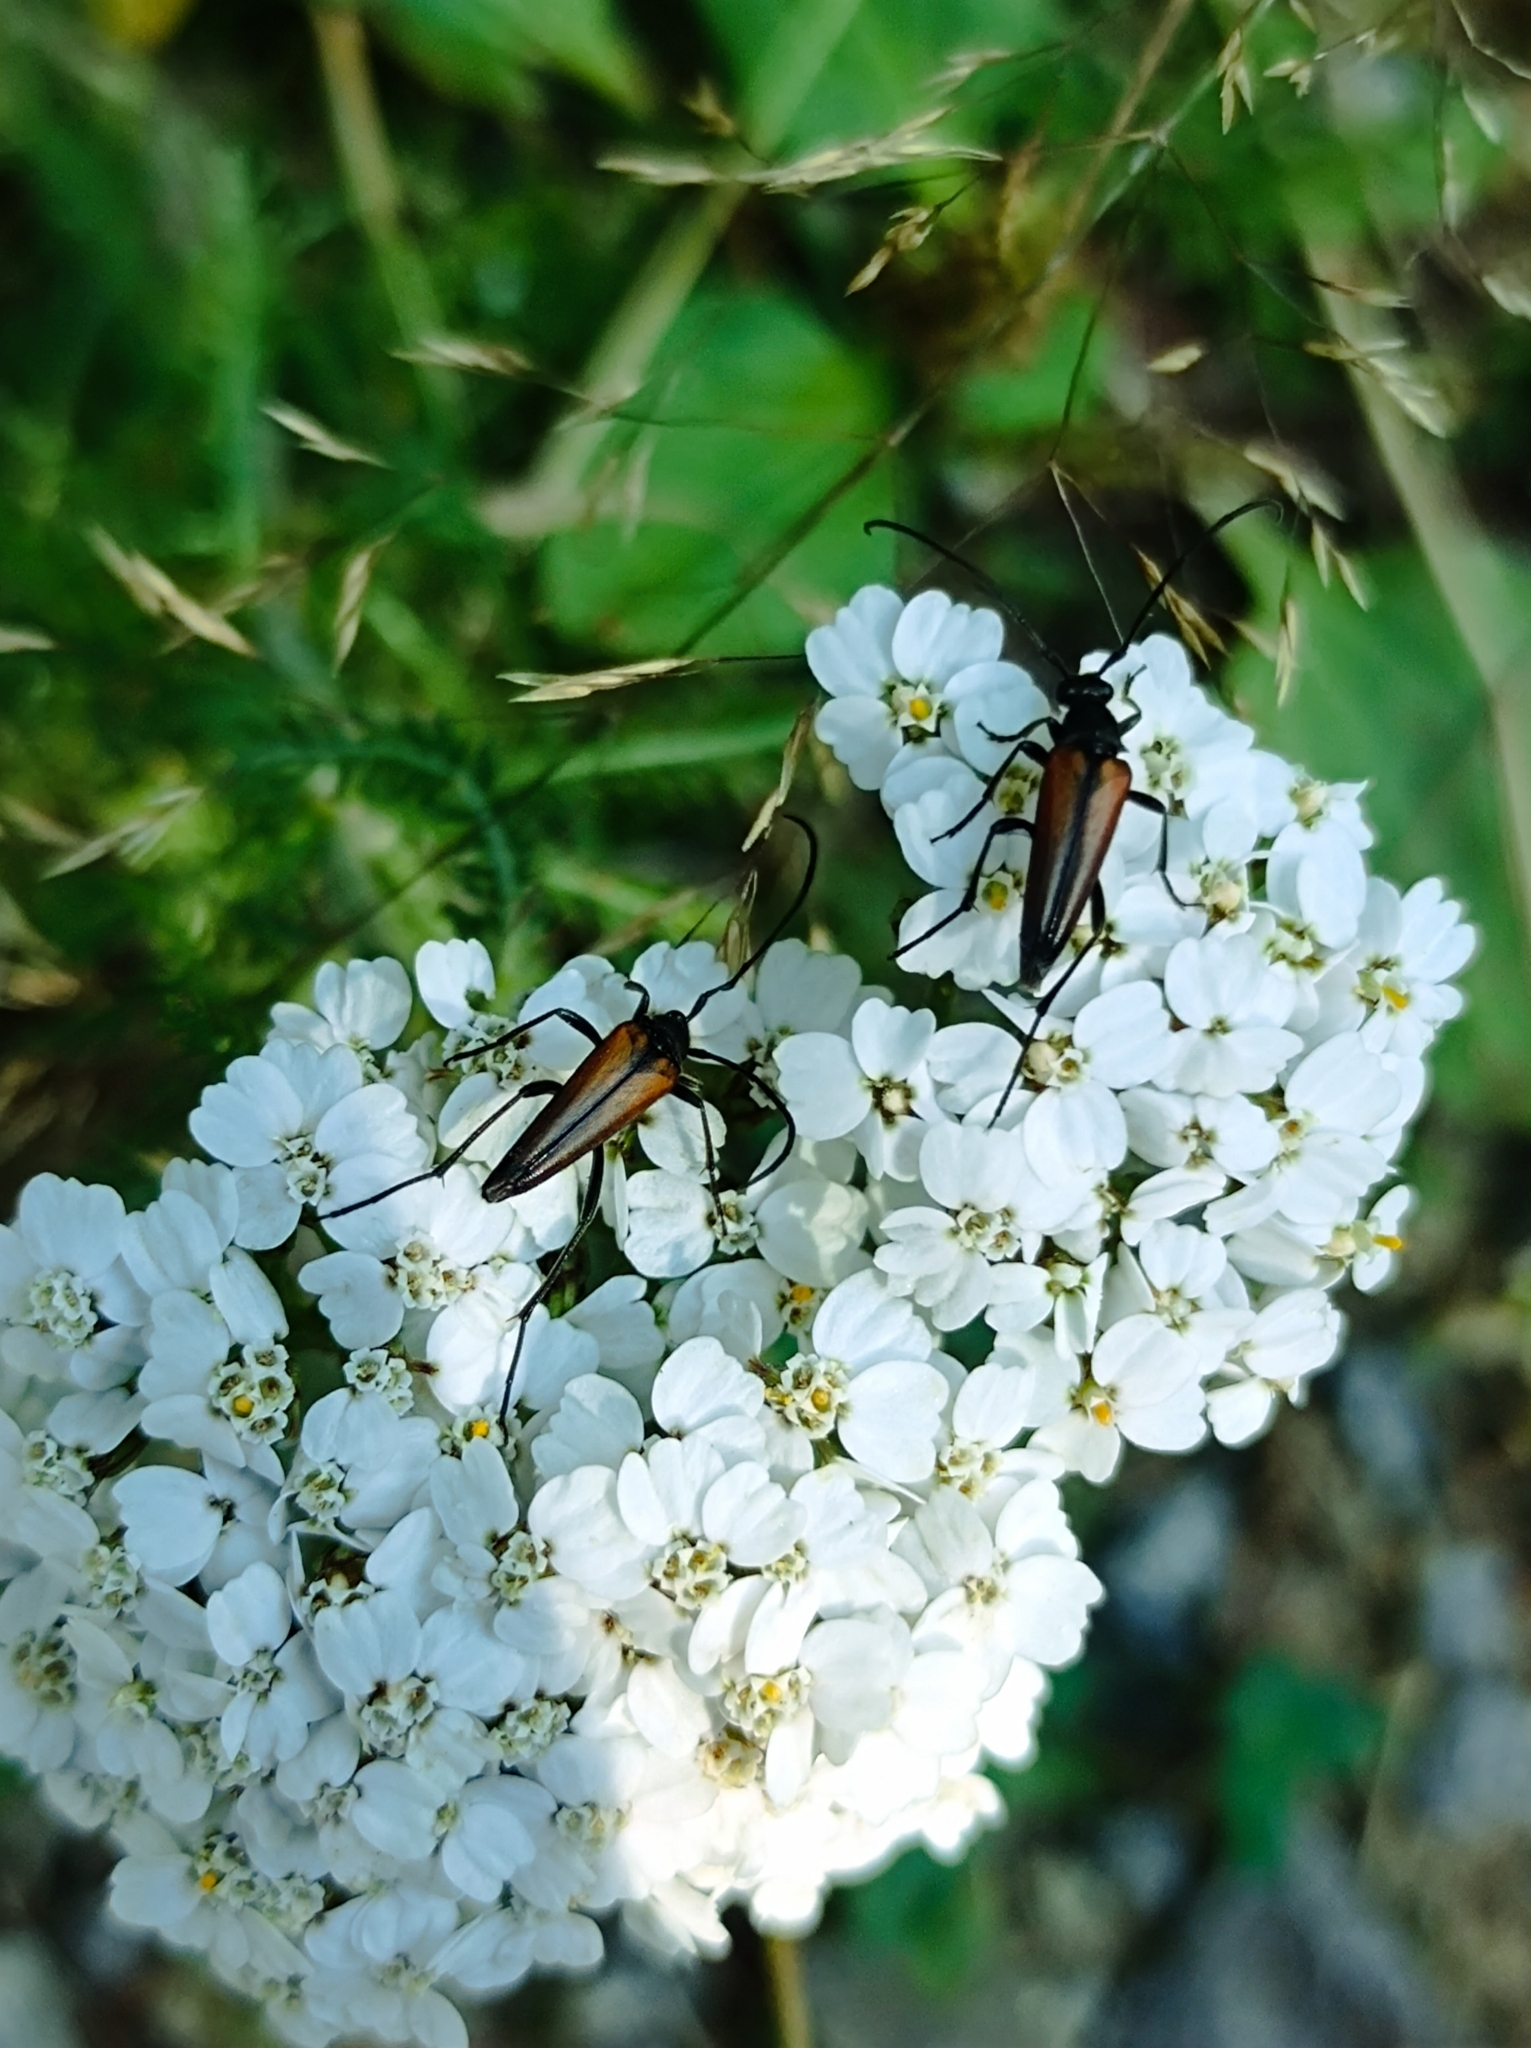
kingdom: Animalia
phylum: Arthropoda
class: Insecta
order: Coleoptera
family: Cerambycidae
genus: Stenurella
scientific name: Stenurella melanura
